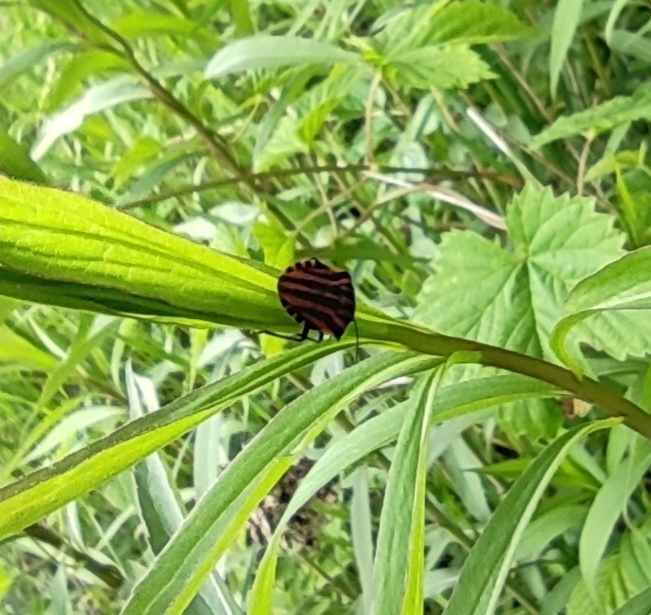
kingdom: Animalia
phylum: Arthropoda
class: Insecta
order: Hemiptera
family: Pentatomidae
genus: Graphosoma
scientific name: Graphosoma italicum
